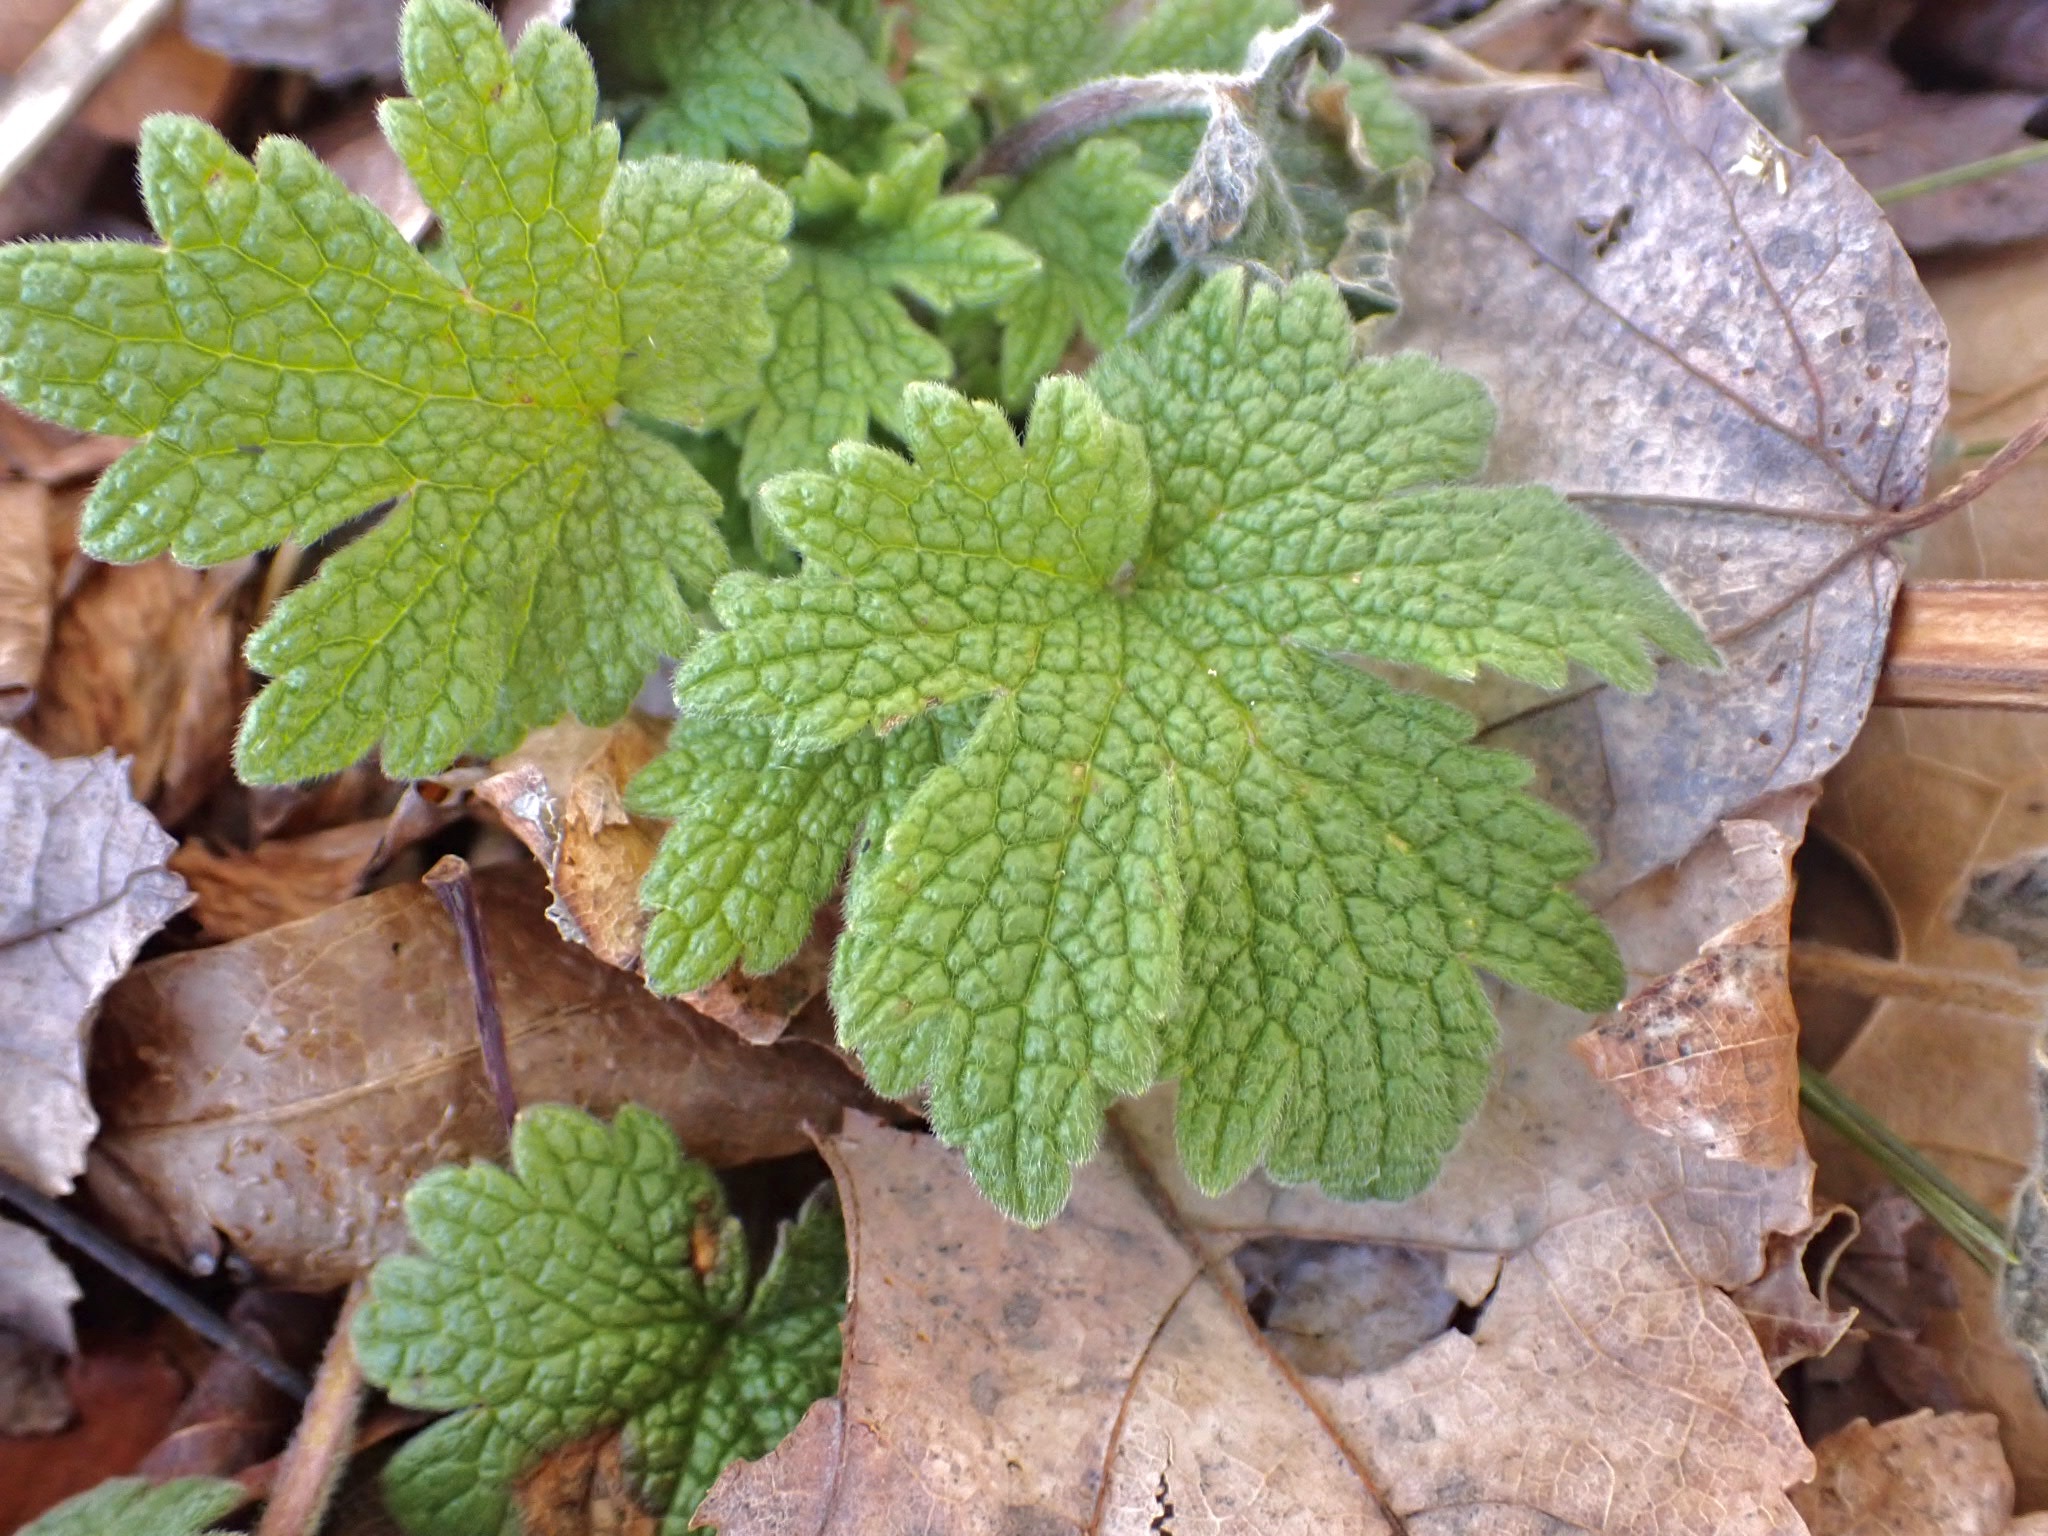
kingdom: Plantae
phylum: Tracheophyta
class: Magnoliopsida
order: Lamiales
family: Lamiaceae
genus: Leonurus
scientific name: Leonurus cardiaca
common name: Motherwort
